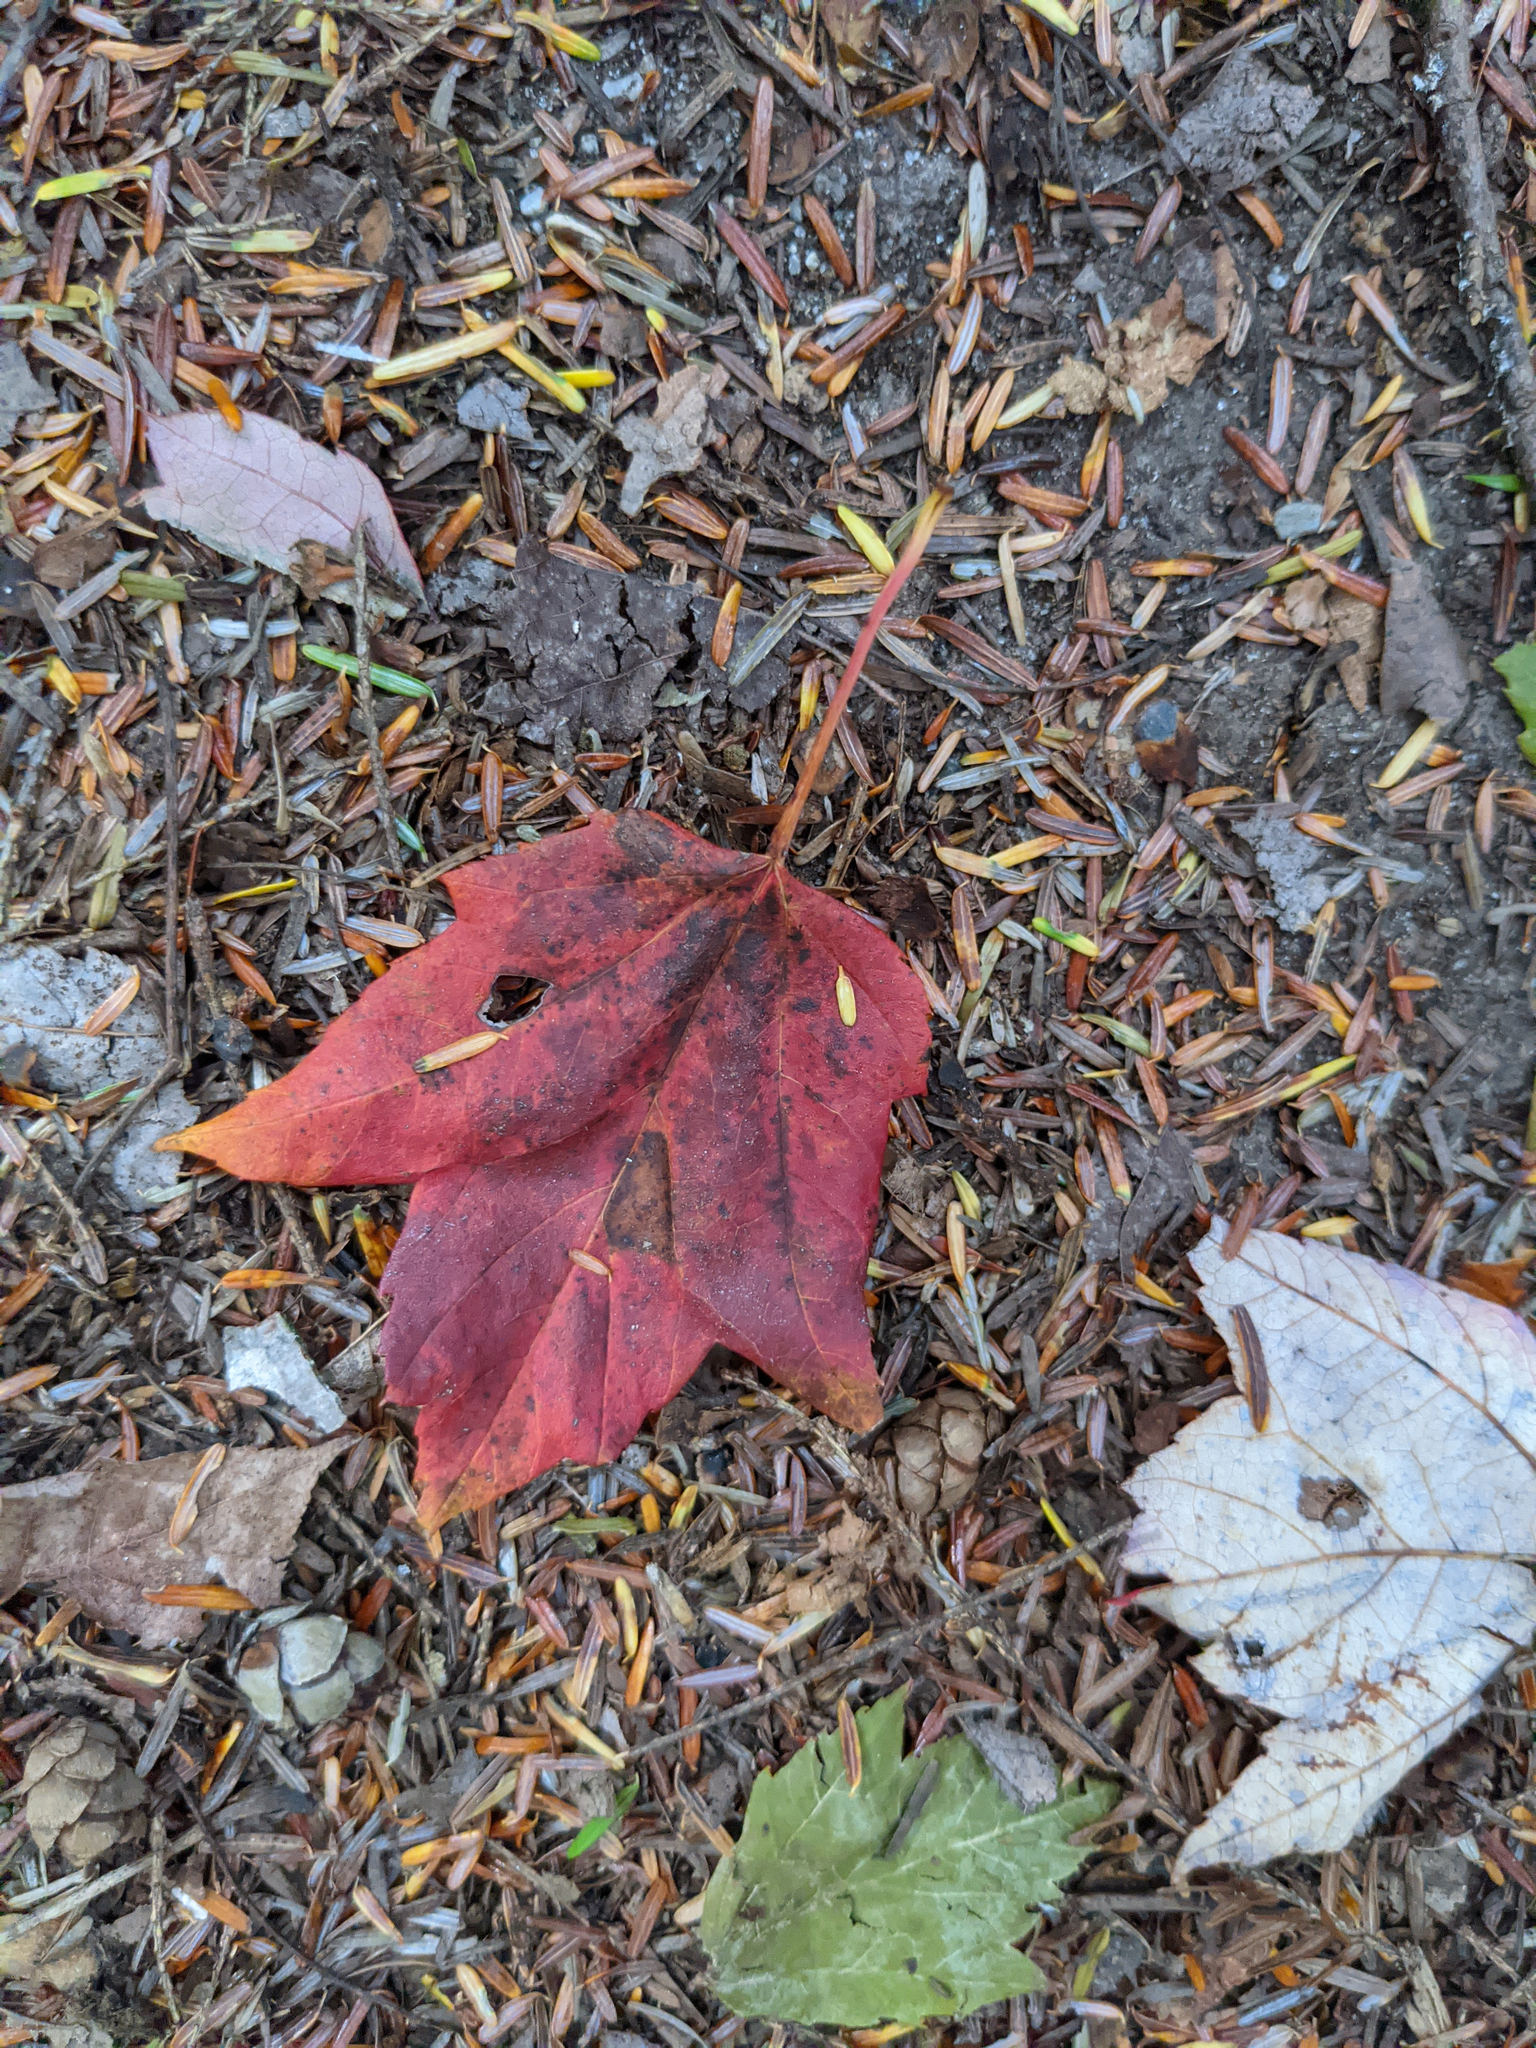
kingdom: Plantae
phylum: Tracheophyta
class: Magnoliopsida
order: Sapindales
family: Sapindaceae
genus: Acer
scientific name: Acer rubrum
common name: Red maple
